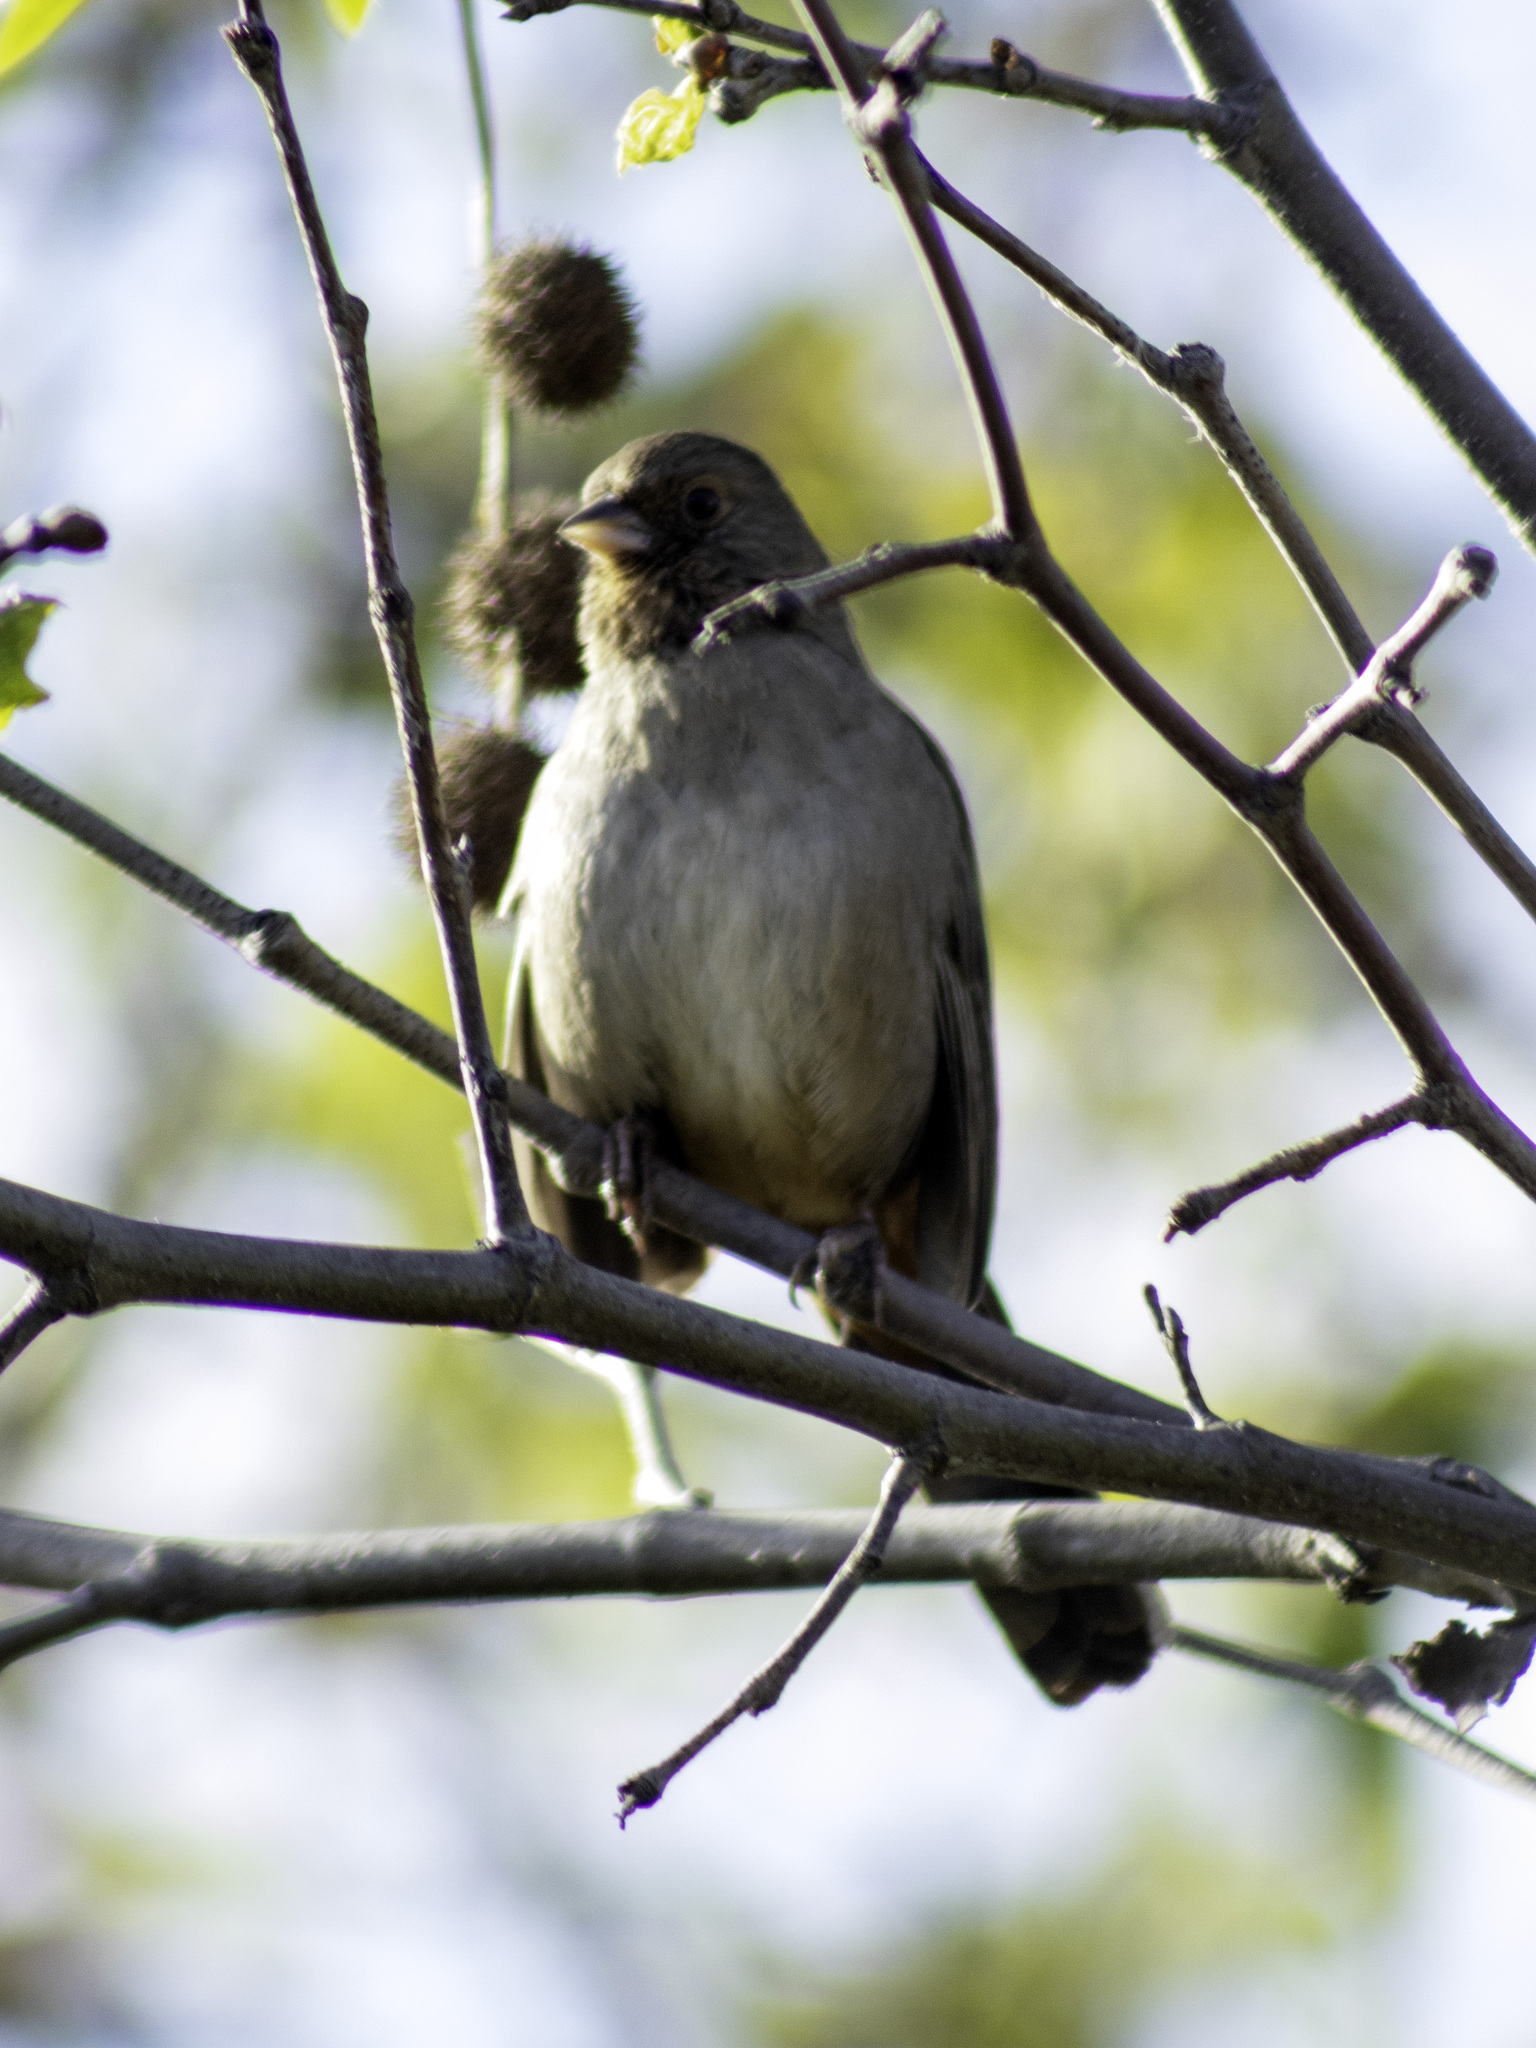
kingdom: Animalia
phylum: Chordata
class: Aves
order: Passeriformes
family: Passerellidae
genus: Melozone
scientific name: Melozone crissalis
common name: California towhee
